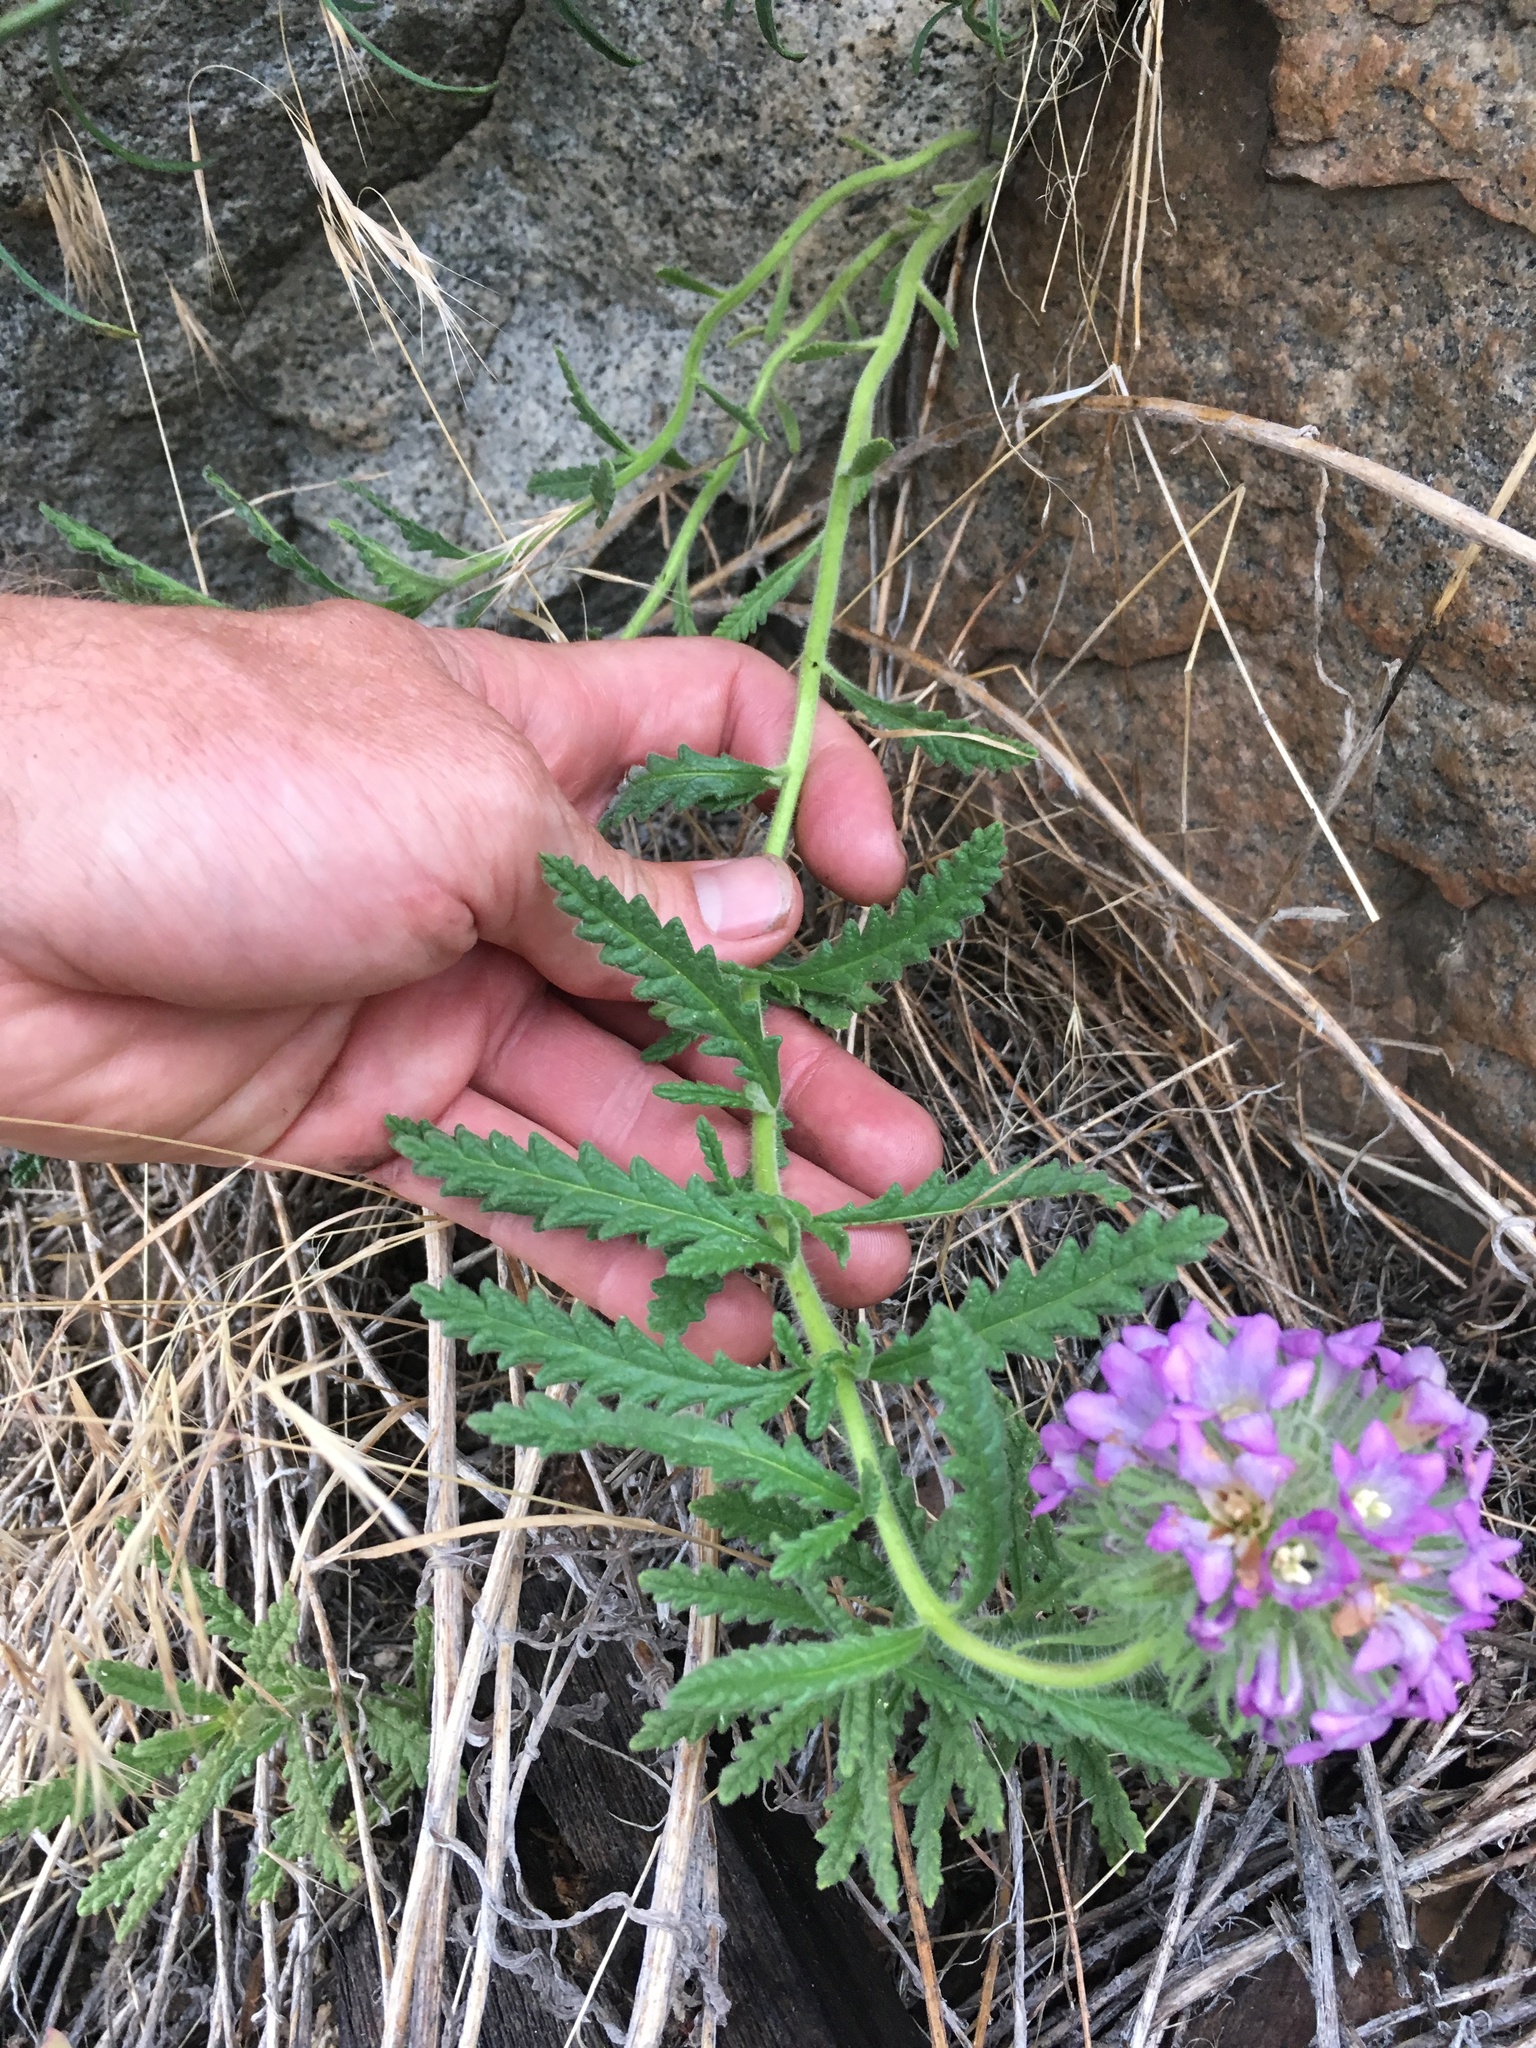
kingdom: Plantae
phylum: Tracheophyta
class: Magnoliopsida
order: Boraginales
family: Namaceae
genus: Nama
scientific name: Nama rothrockii
